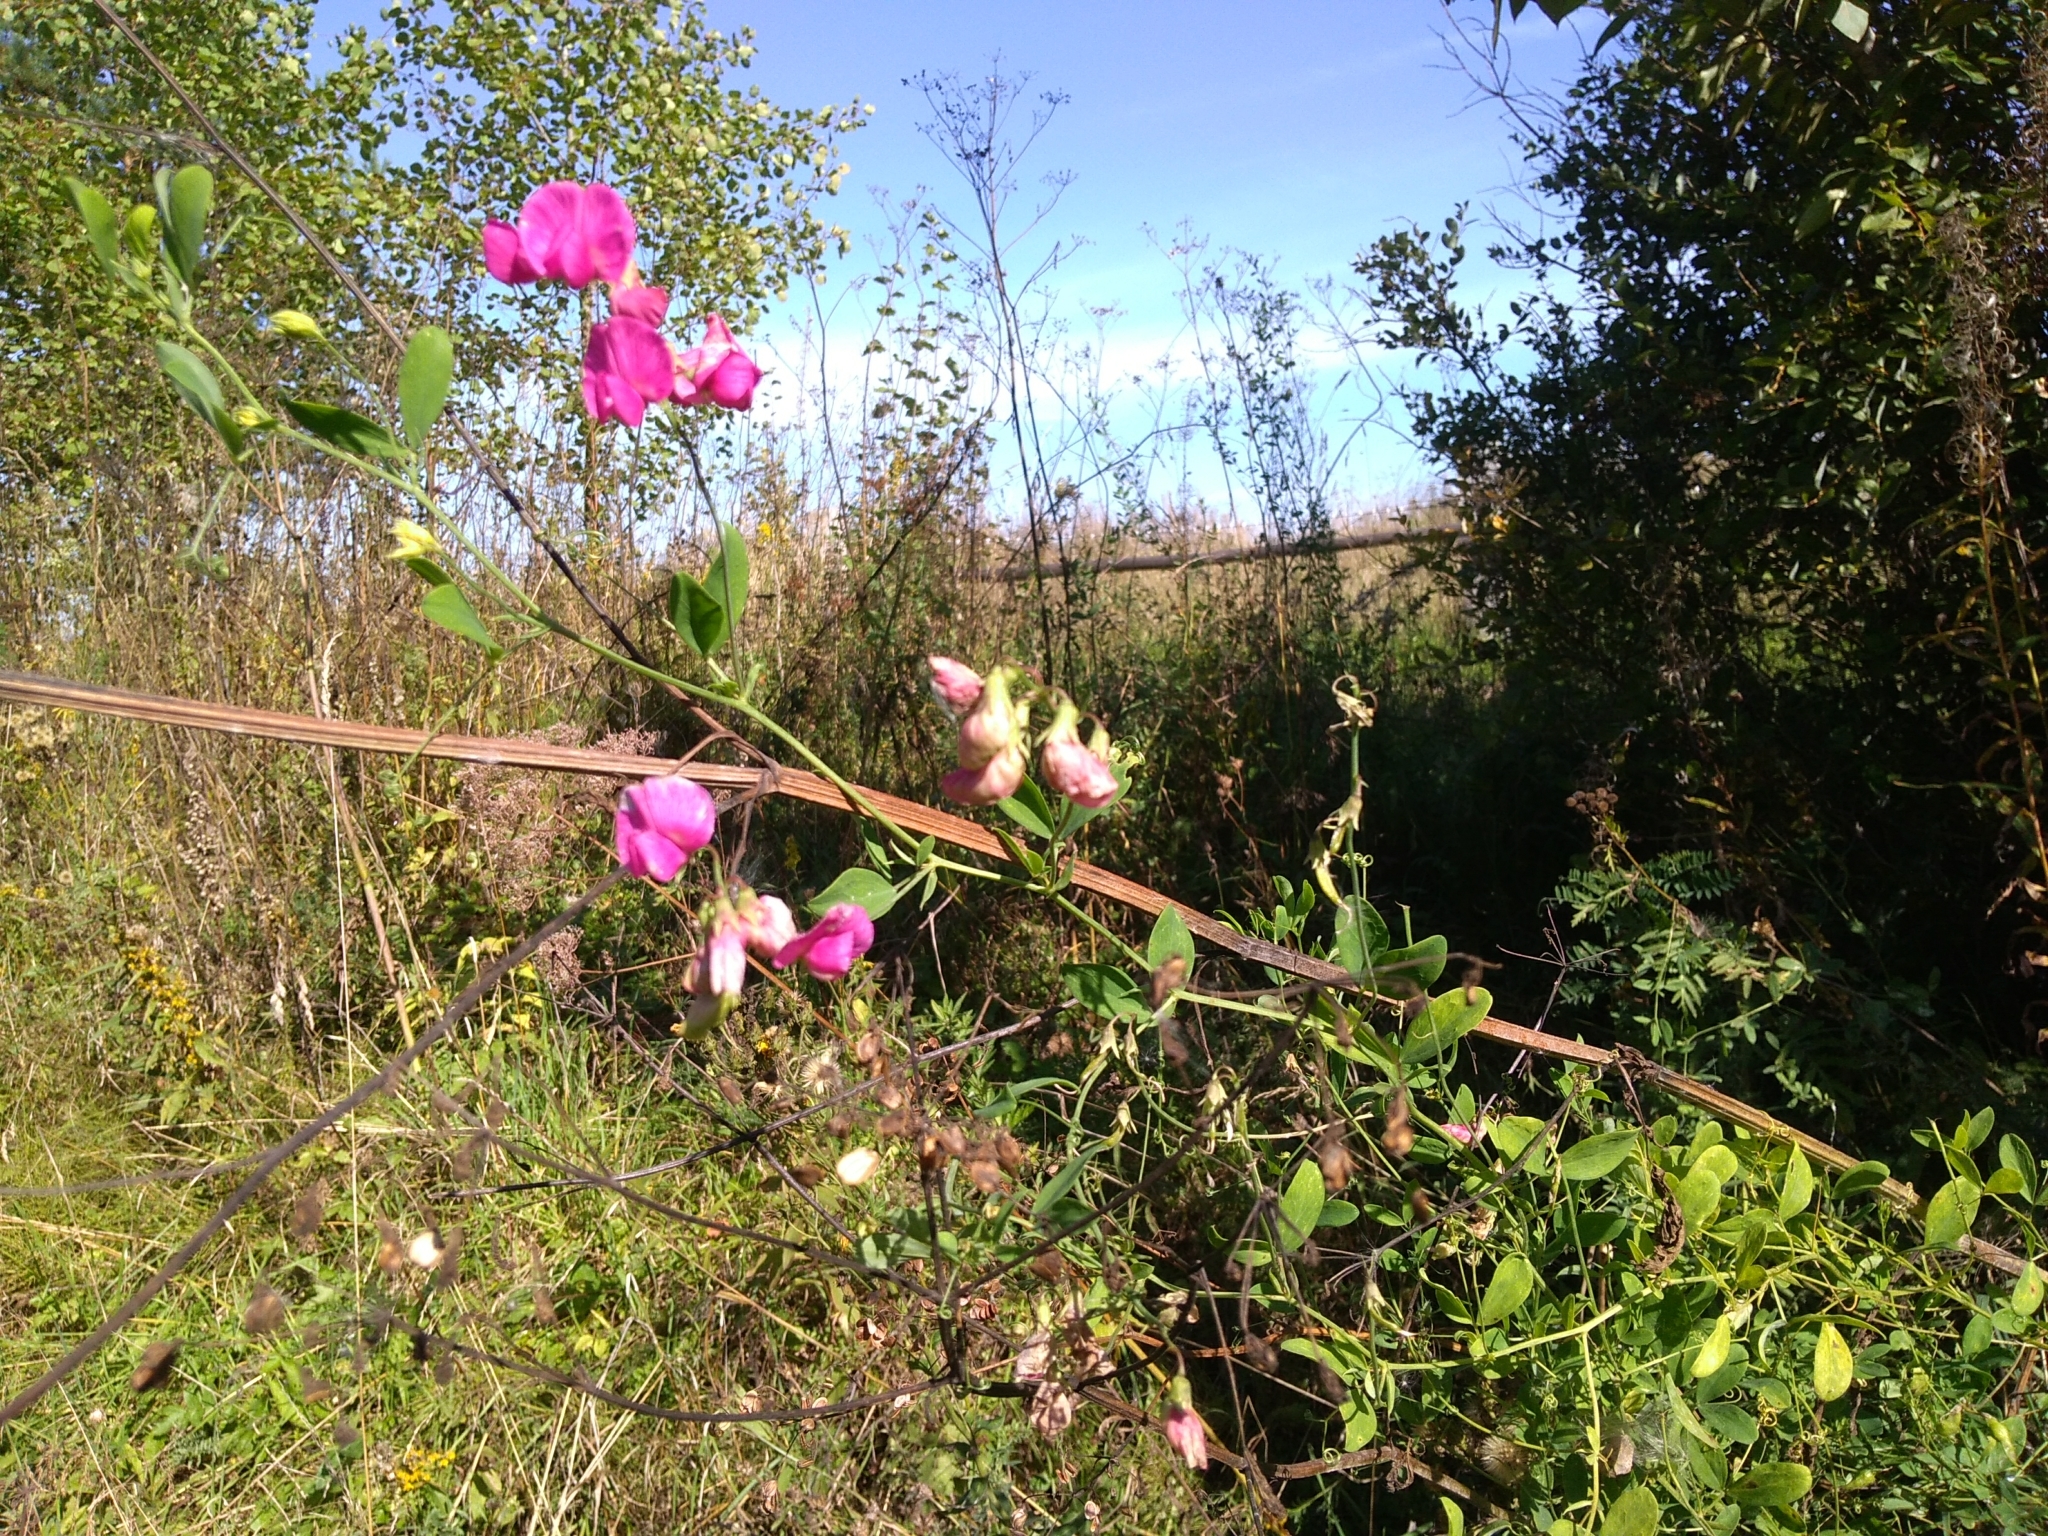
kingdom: Plantae
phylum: Tracheophyta
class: Magnoliopsida
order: Fabales
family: Fabaceae
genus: Lathyrus
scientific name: Lathyrus tuberosus
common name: Tuberous pea
